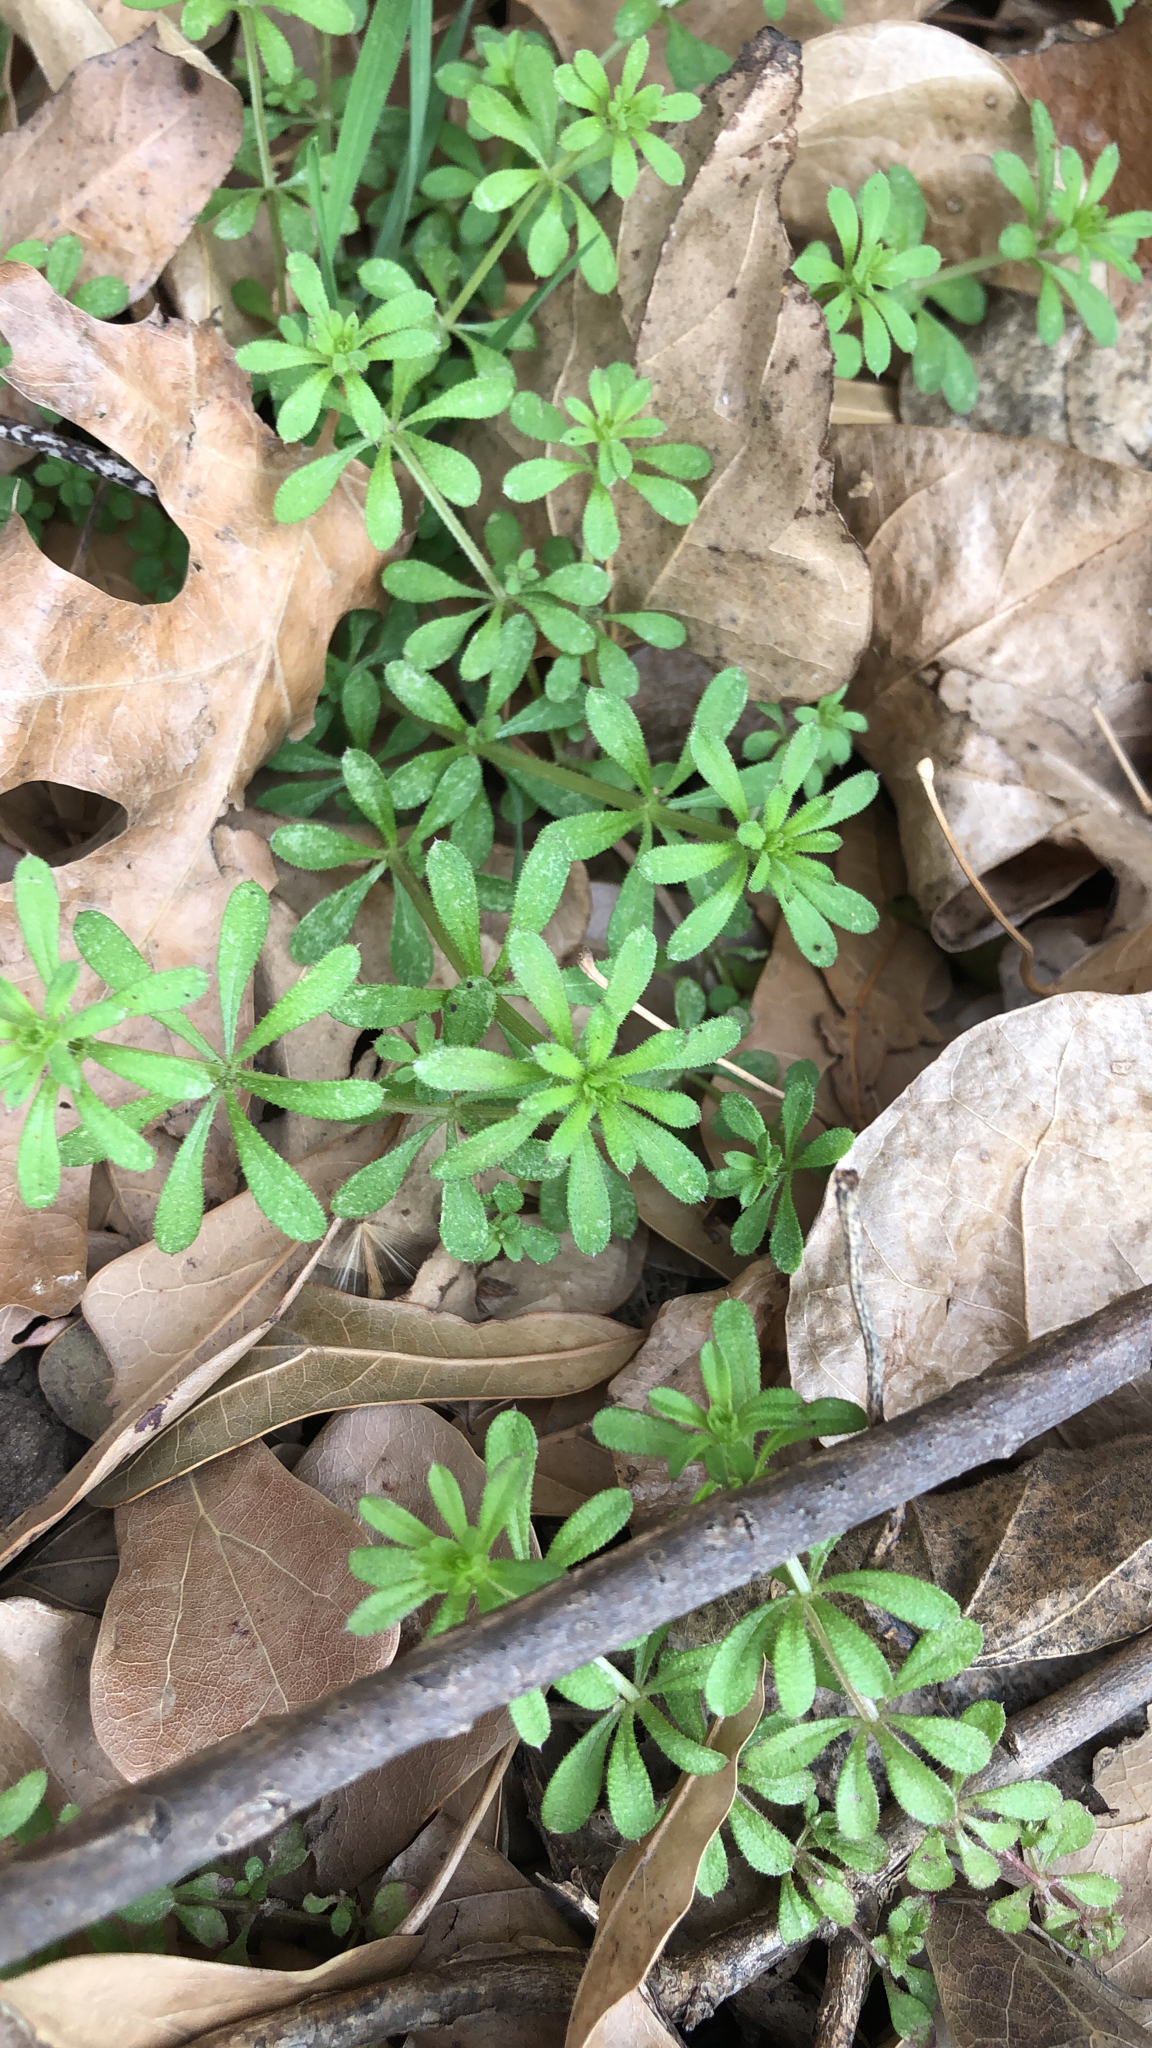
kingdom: Plantae
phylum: Tracheophyta
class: Magnoliopsida
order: Gentianales
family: Rubiaceae
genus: Galium
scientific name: Galium aparine
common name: Cleavers
